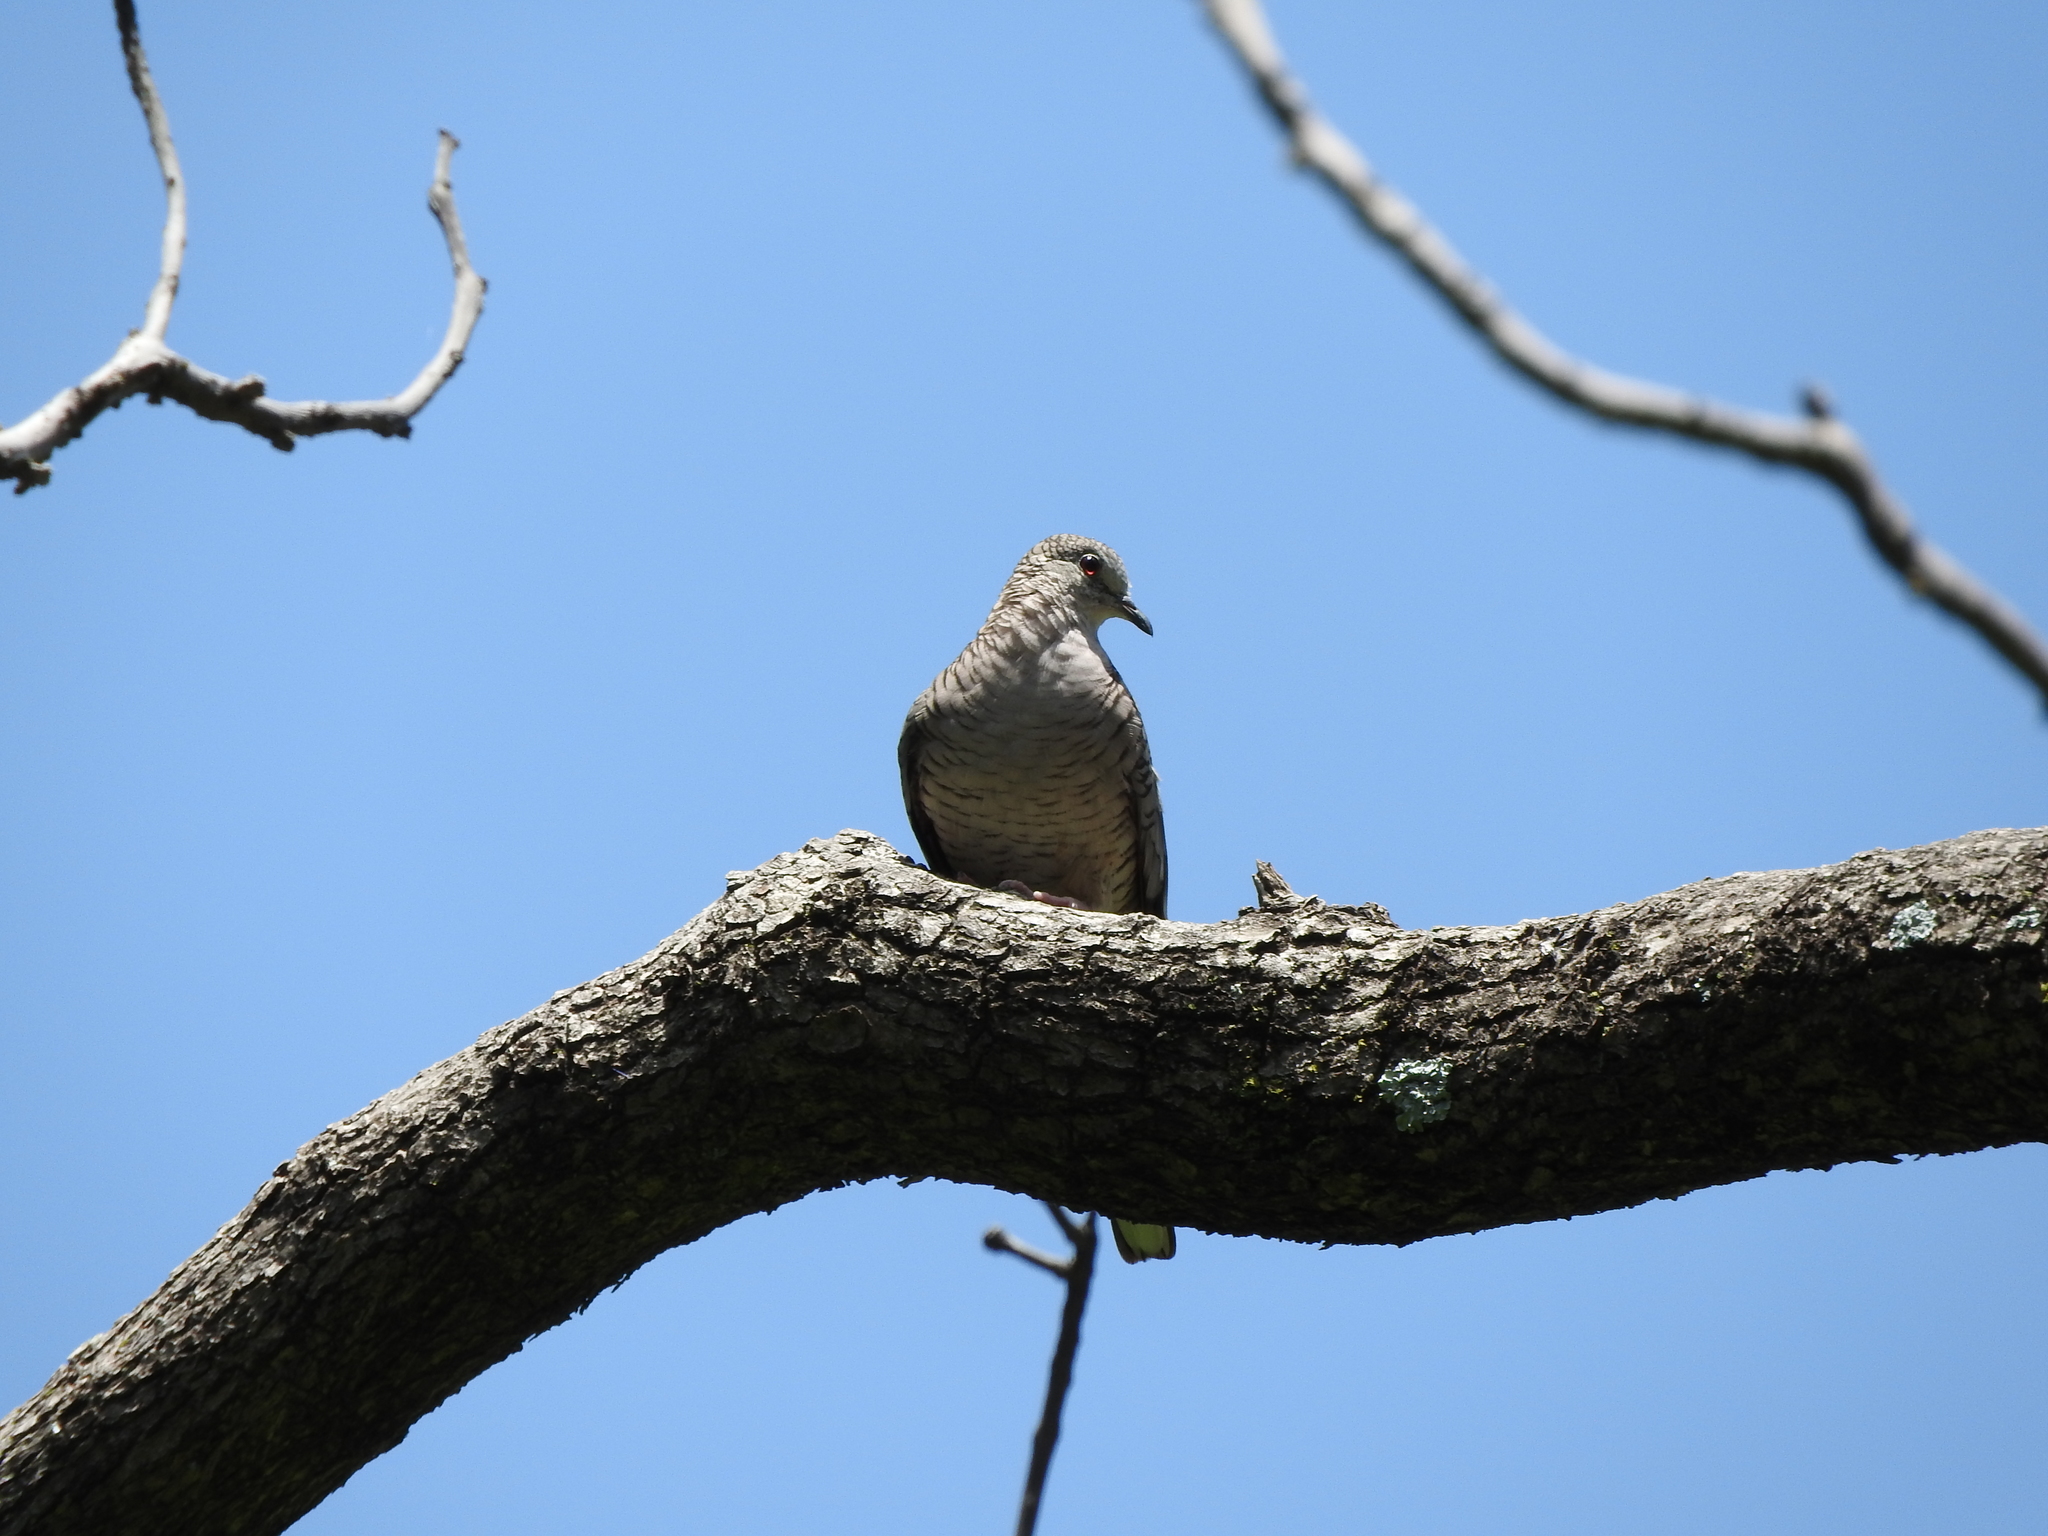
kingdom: Animalia
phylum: Chordata
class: Aves
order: Columbiformes
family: Columbidae
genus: Columbina
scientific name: Columbina inca
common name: Inca dove
